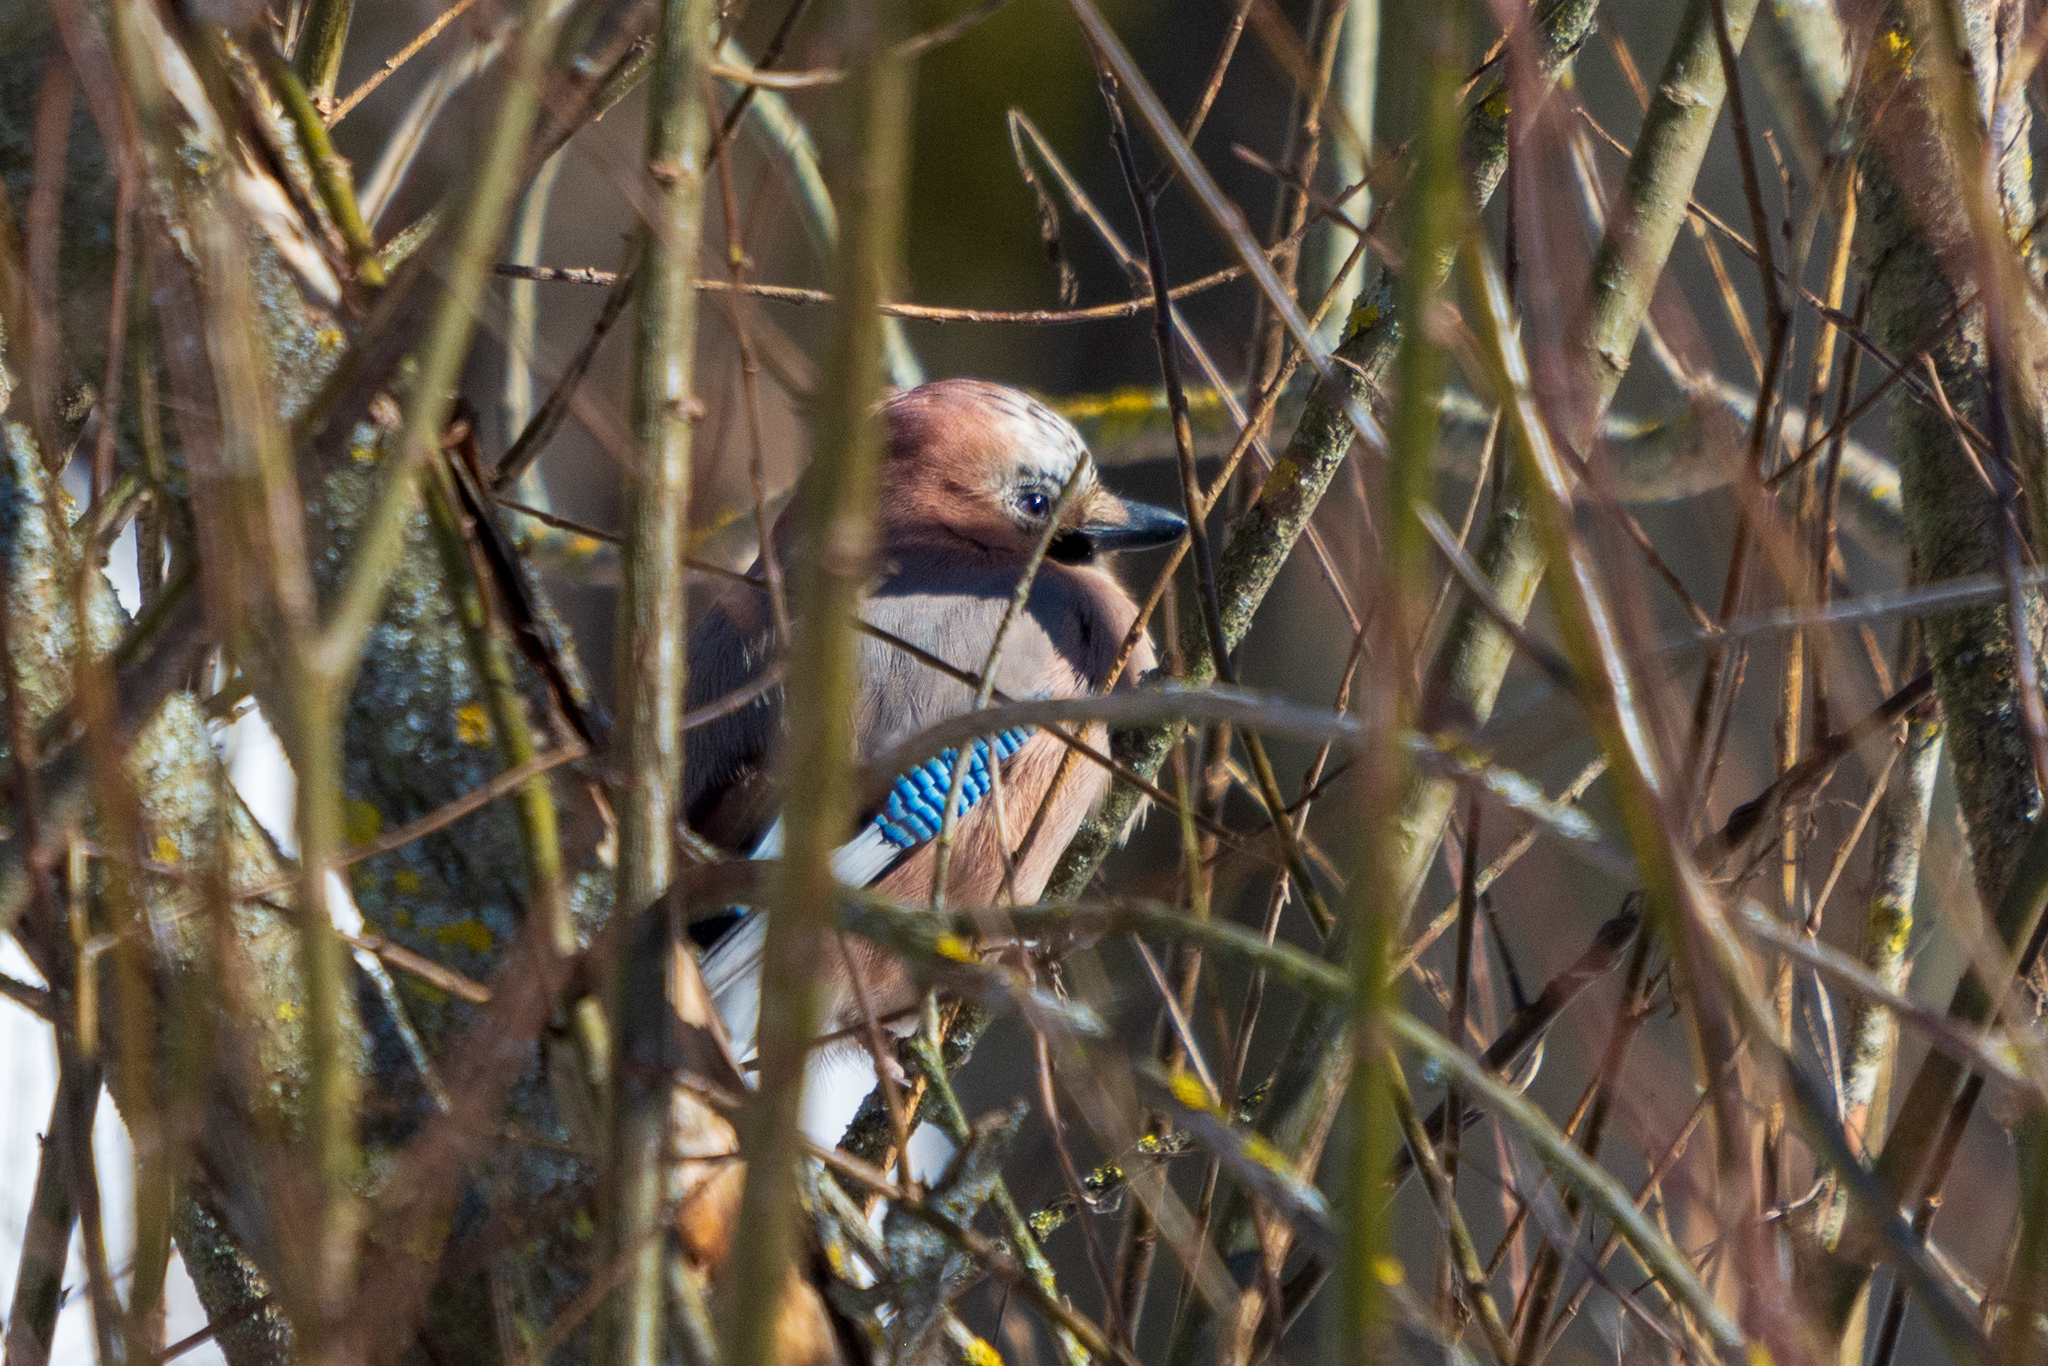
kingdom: Animalia
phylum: Chordata
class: Aves
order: Passeriformes
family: Corvidae
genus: Garrulus
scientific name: Garrulus glandarius
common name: Eurasian jay
